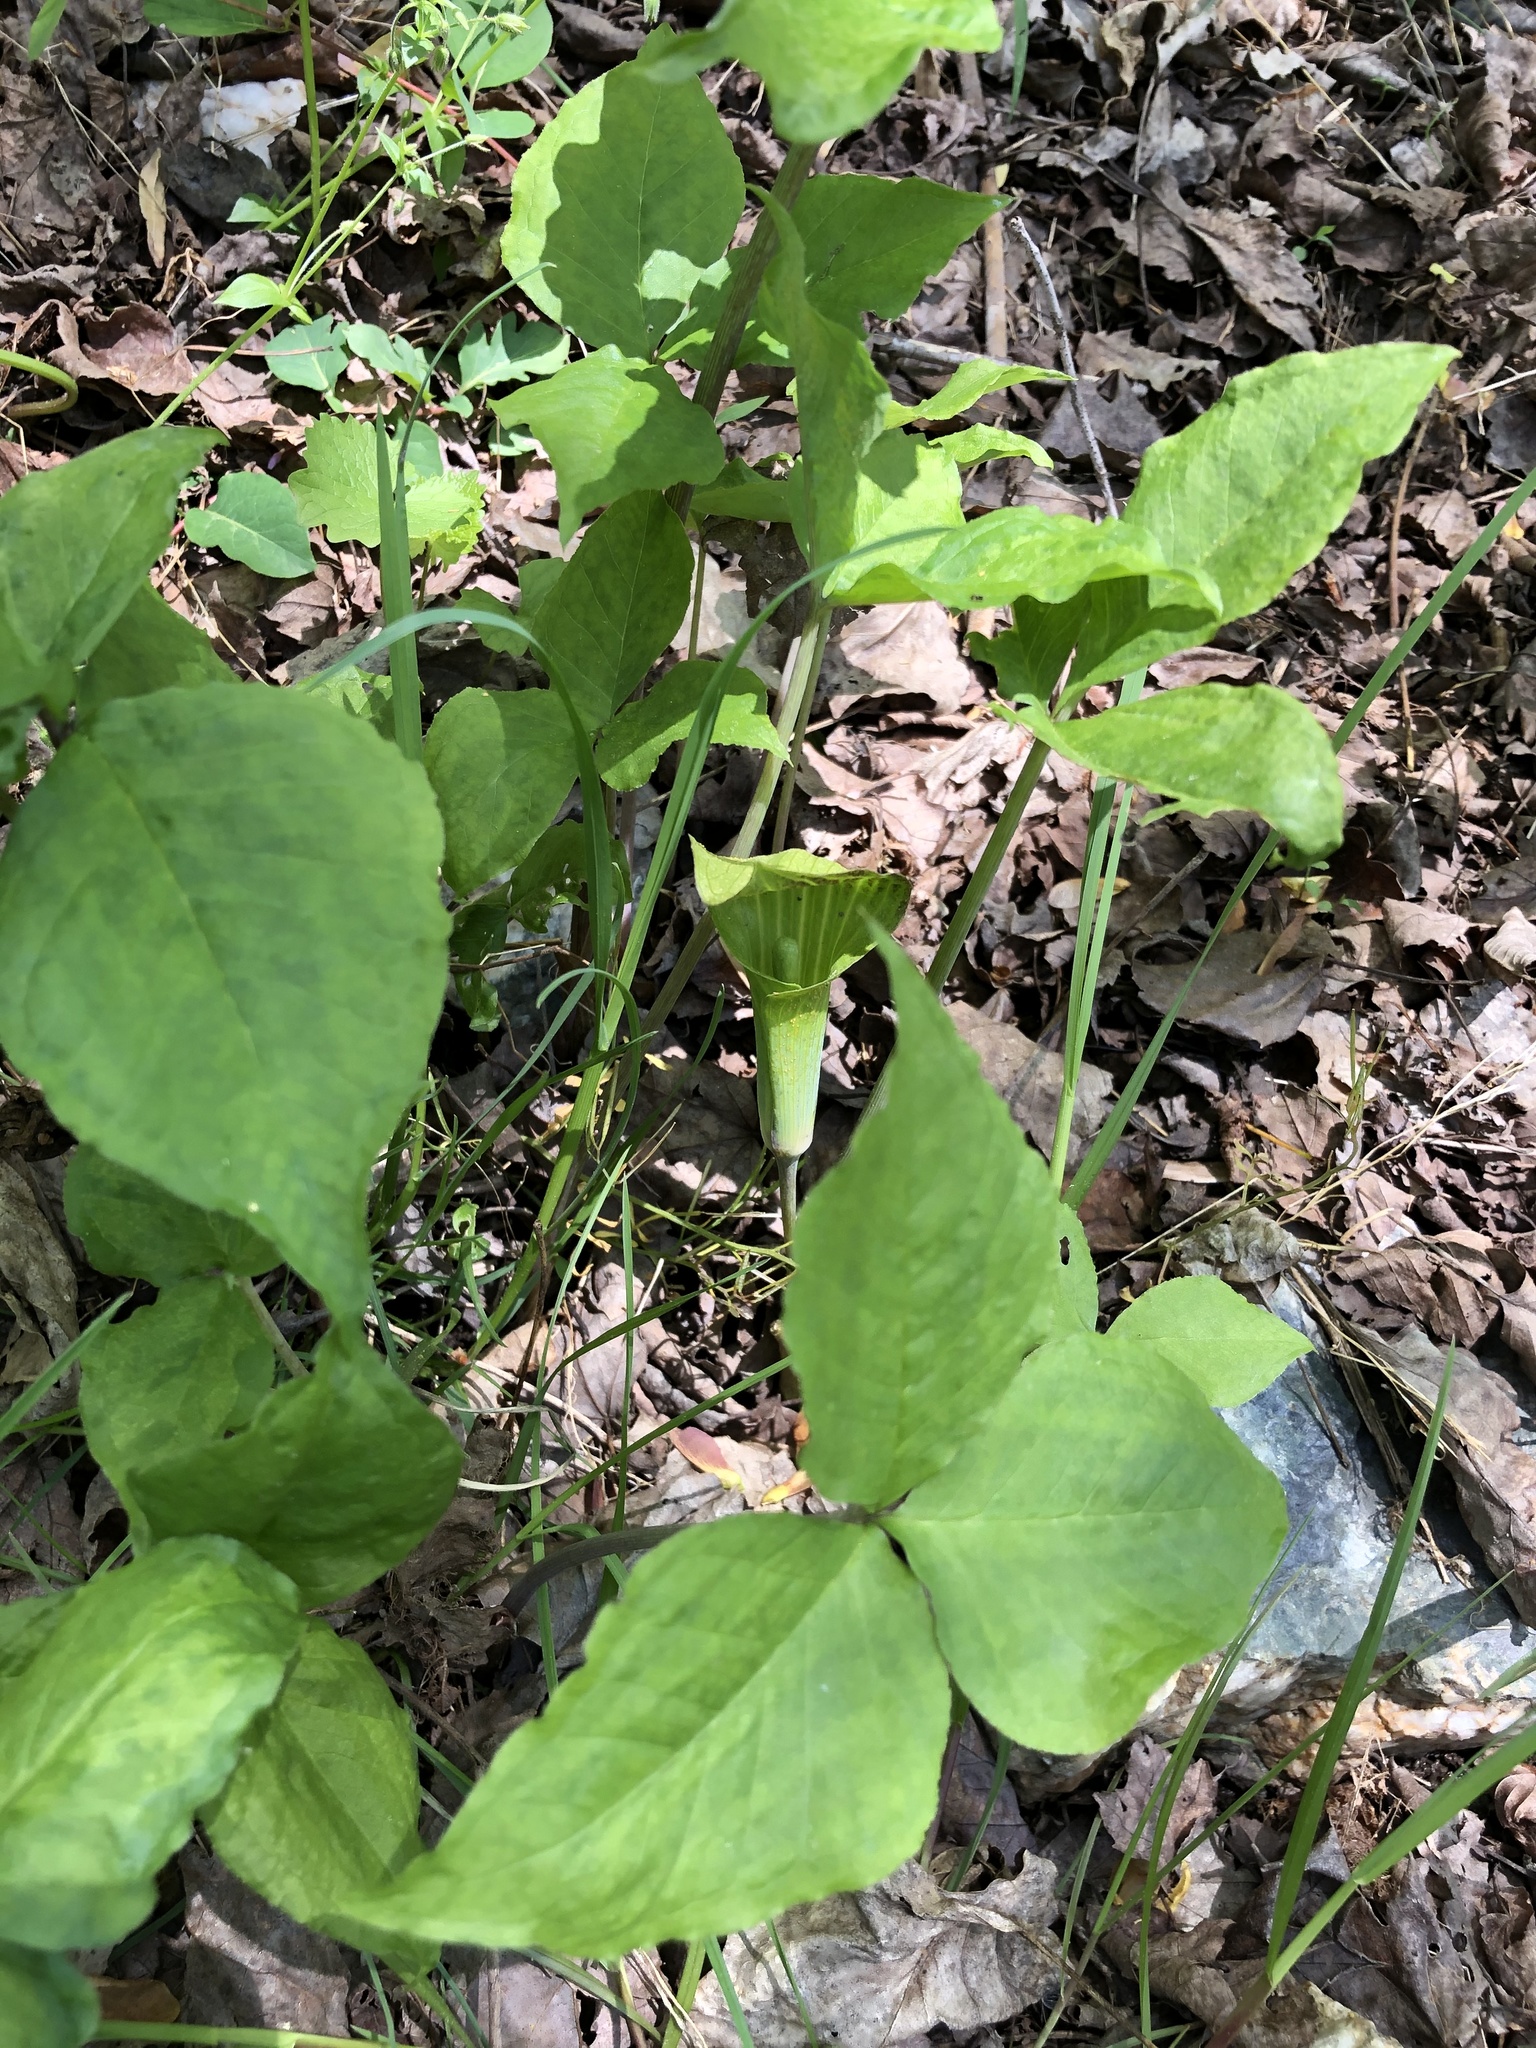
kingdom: Plantae
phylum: Tracheophyta
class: Liliopsida
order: Alismatales
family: Araceae
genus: Arisaema
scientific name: Arisaema triphyllum
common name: Jack-in-the-pulpit
